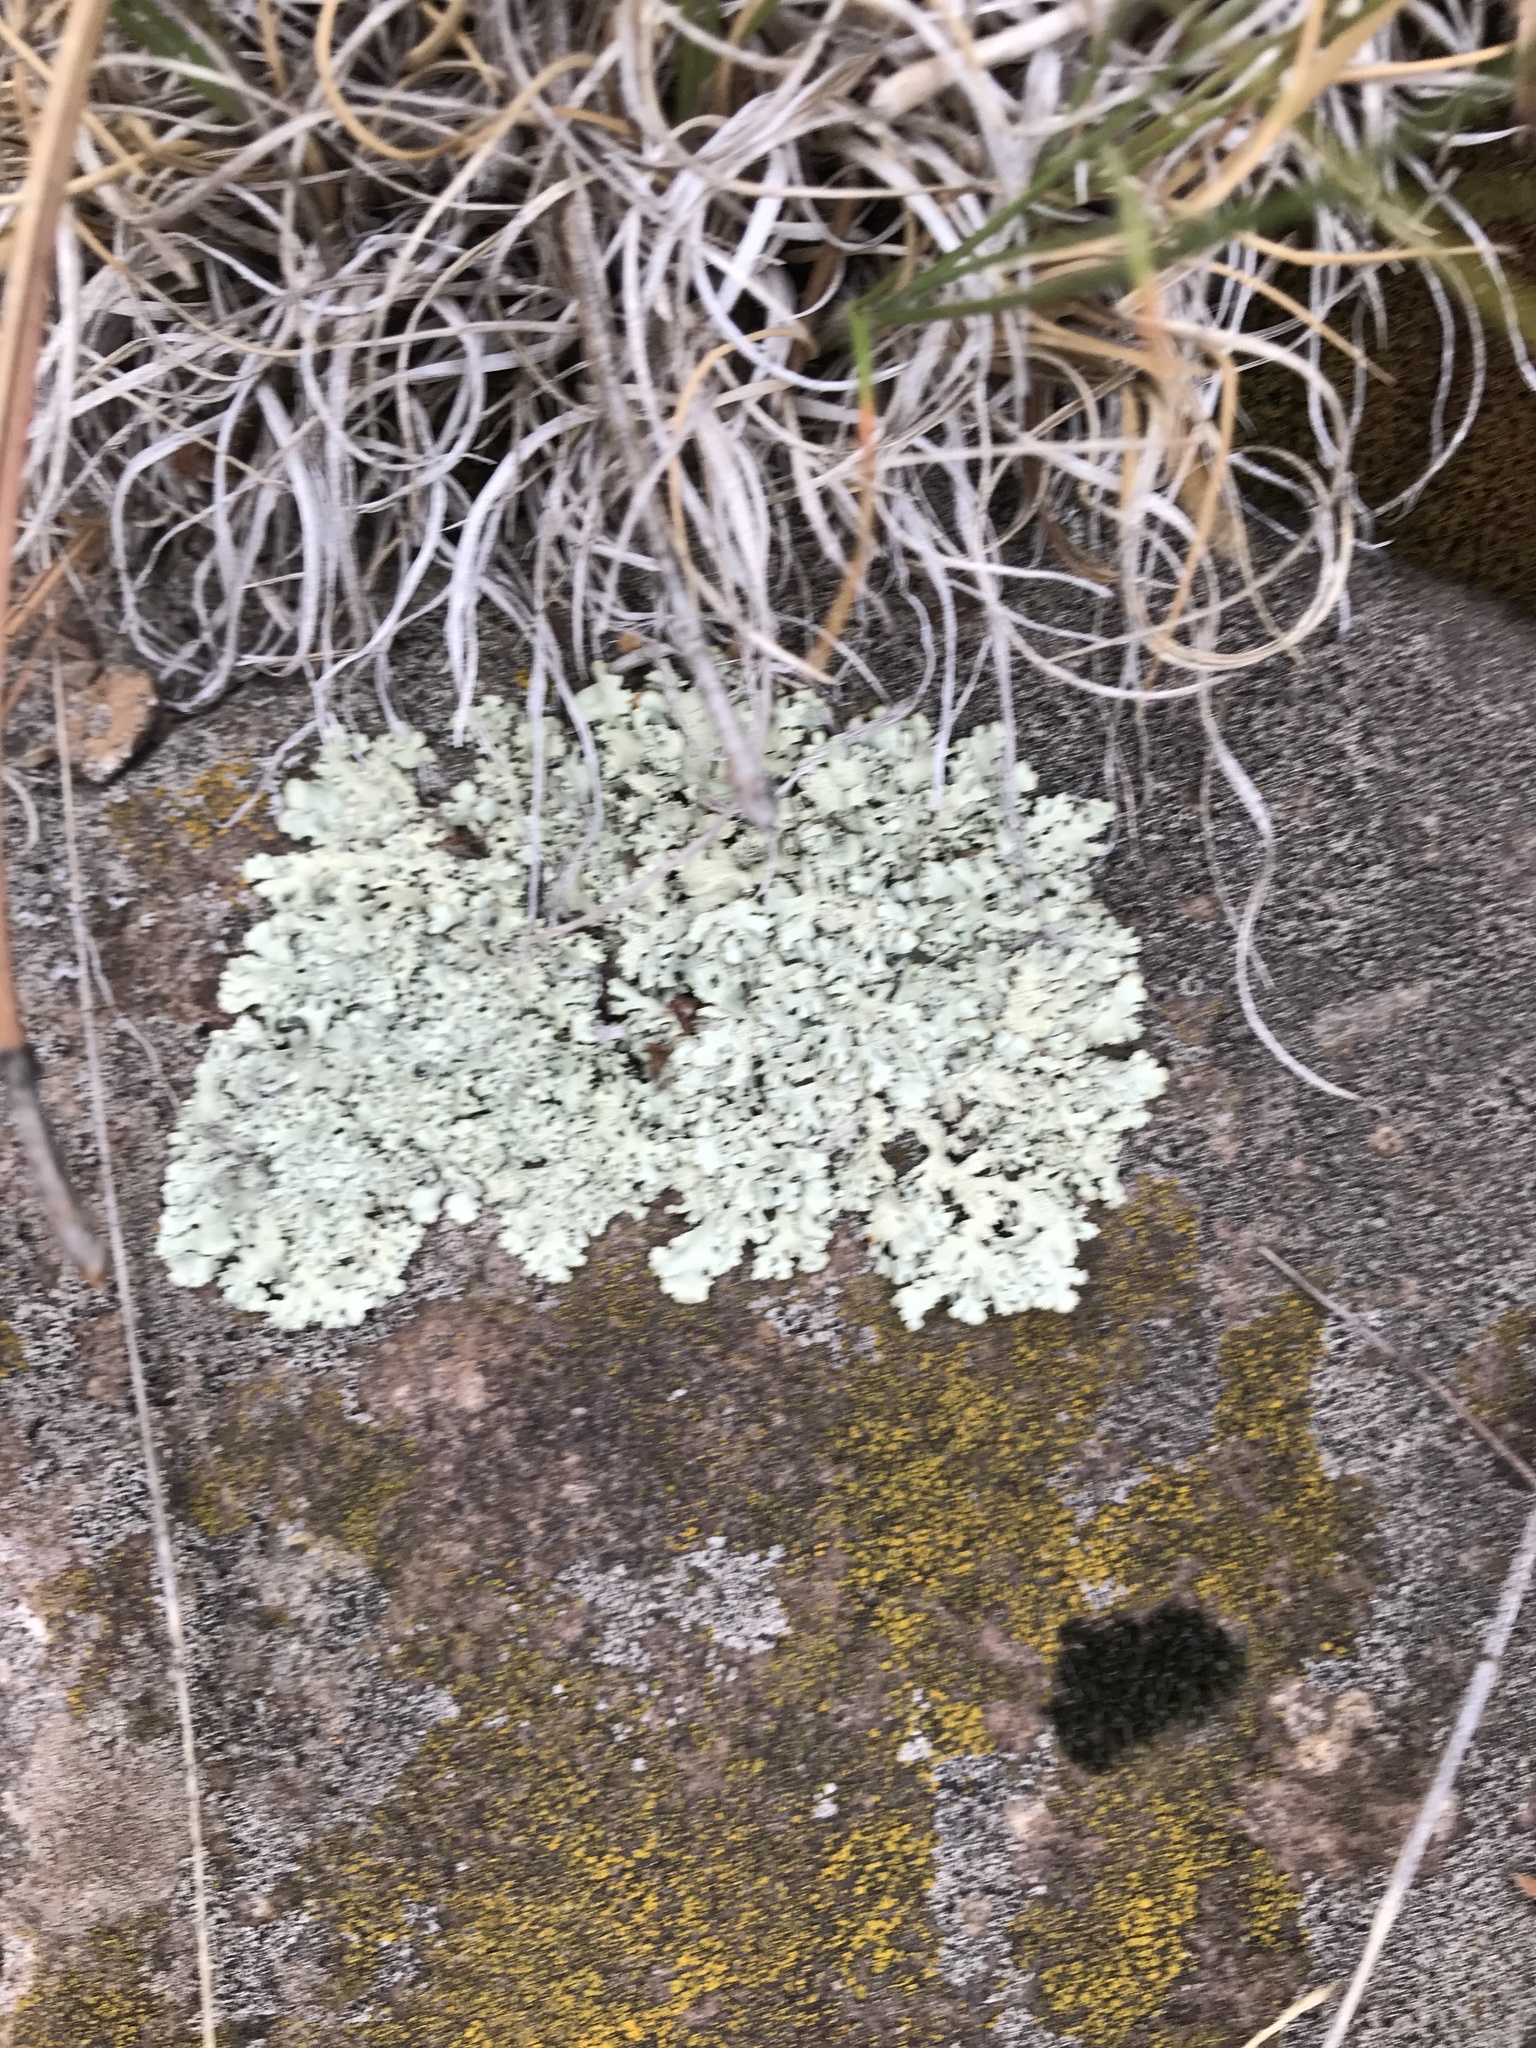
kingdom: Fungi
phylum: Ascomycota
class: Lecanoromycetes
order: Lecanorales
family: Parmeliaceae
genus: Xanthoparmelia
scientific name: Xanthoparmelia cumberlandia
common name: Cumberland rock shield
